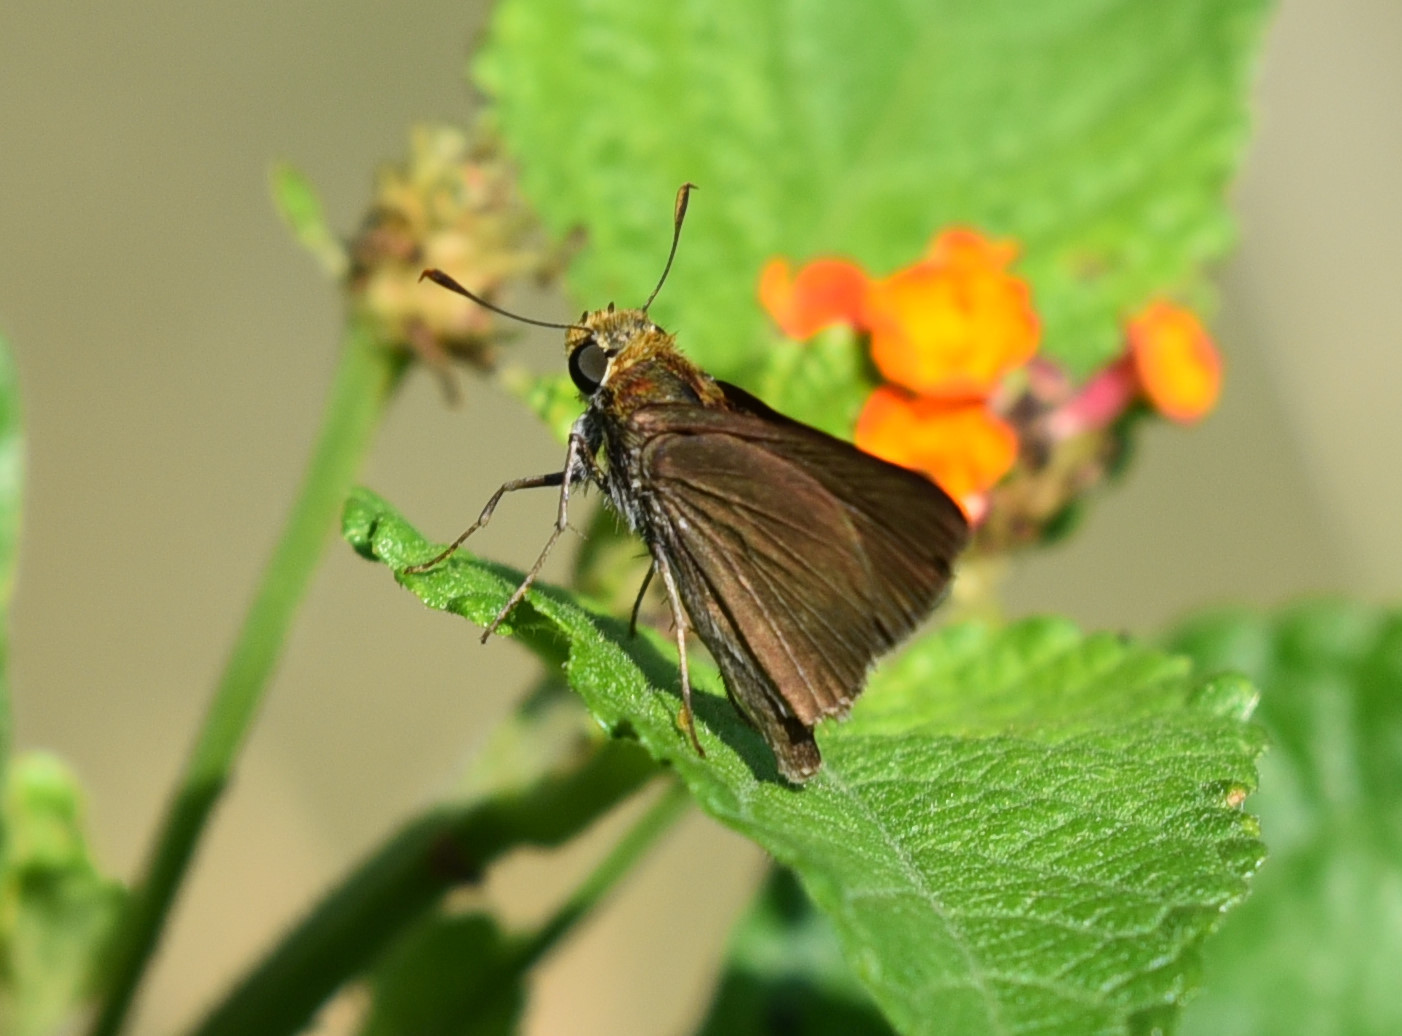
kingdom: Animalia
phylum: Arthropoda
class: Insecta
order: Lepidoptera
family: Hesperiidae
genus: Euphyes
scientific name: Euphyes vestris
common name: Dun skipper
